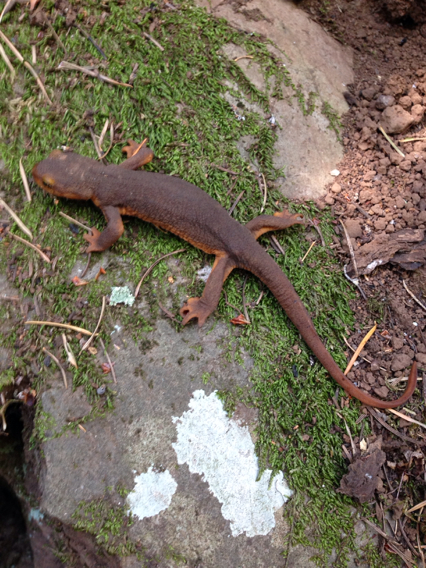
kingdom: Animalia
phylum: Chordata
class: Amphibia
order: Caudata
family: Salamandridae
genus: Taricha
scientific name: Taricha torosa
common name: California newt
